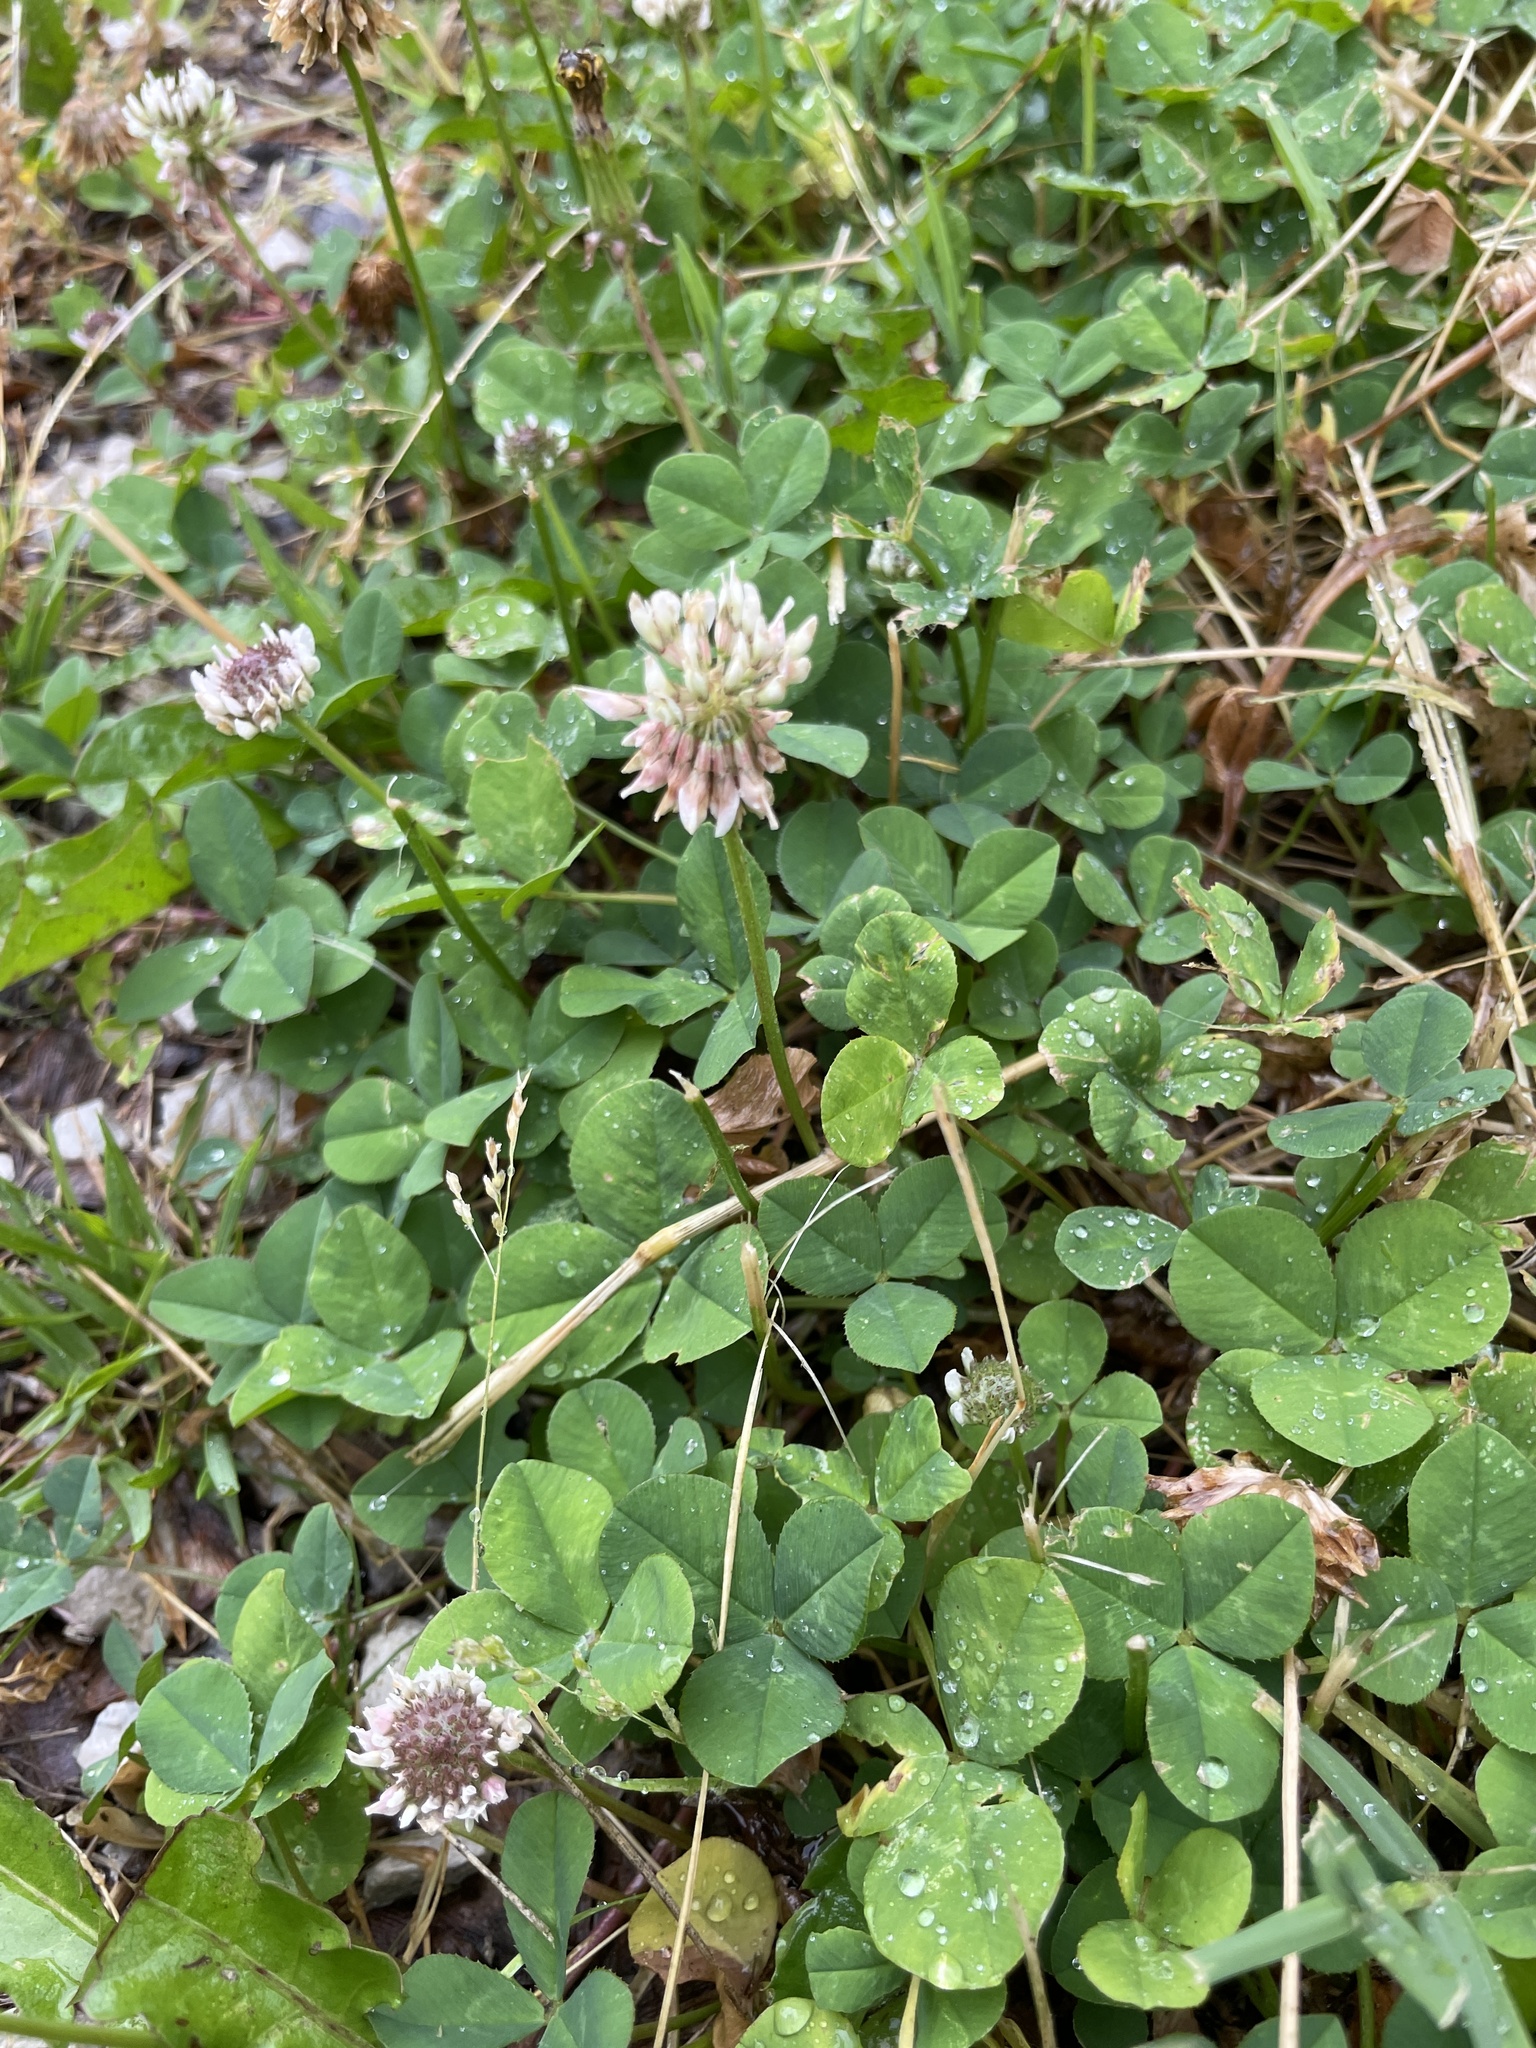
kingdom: Plantae
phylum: Tracheophyta
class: Magnoliopsida
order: Fabales
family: Fabaceae
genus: Trifolium
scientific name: Trifolium repens
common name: White clover
